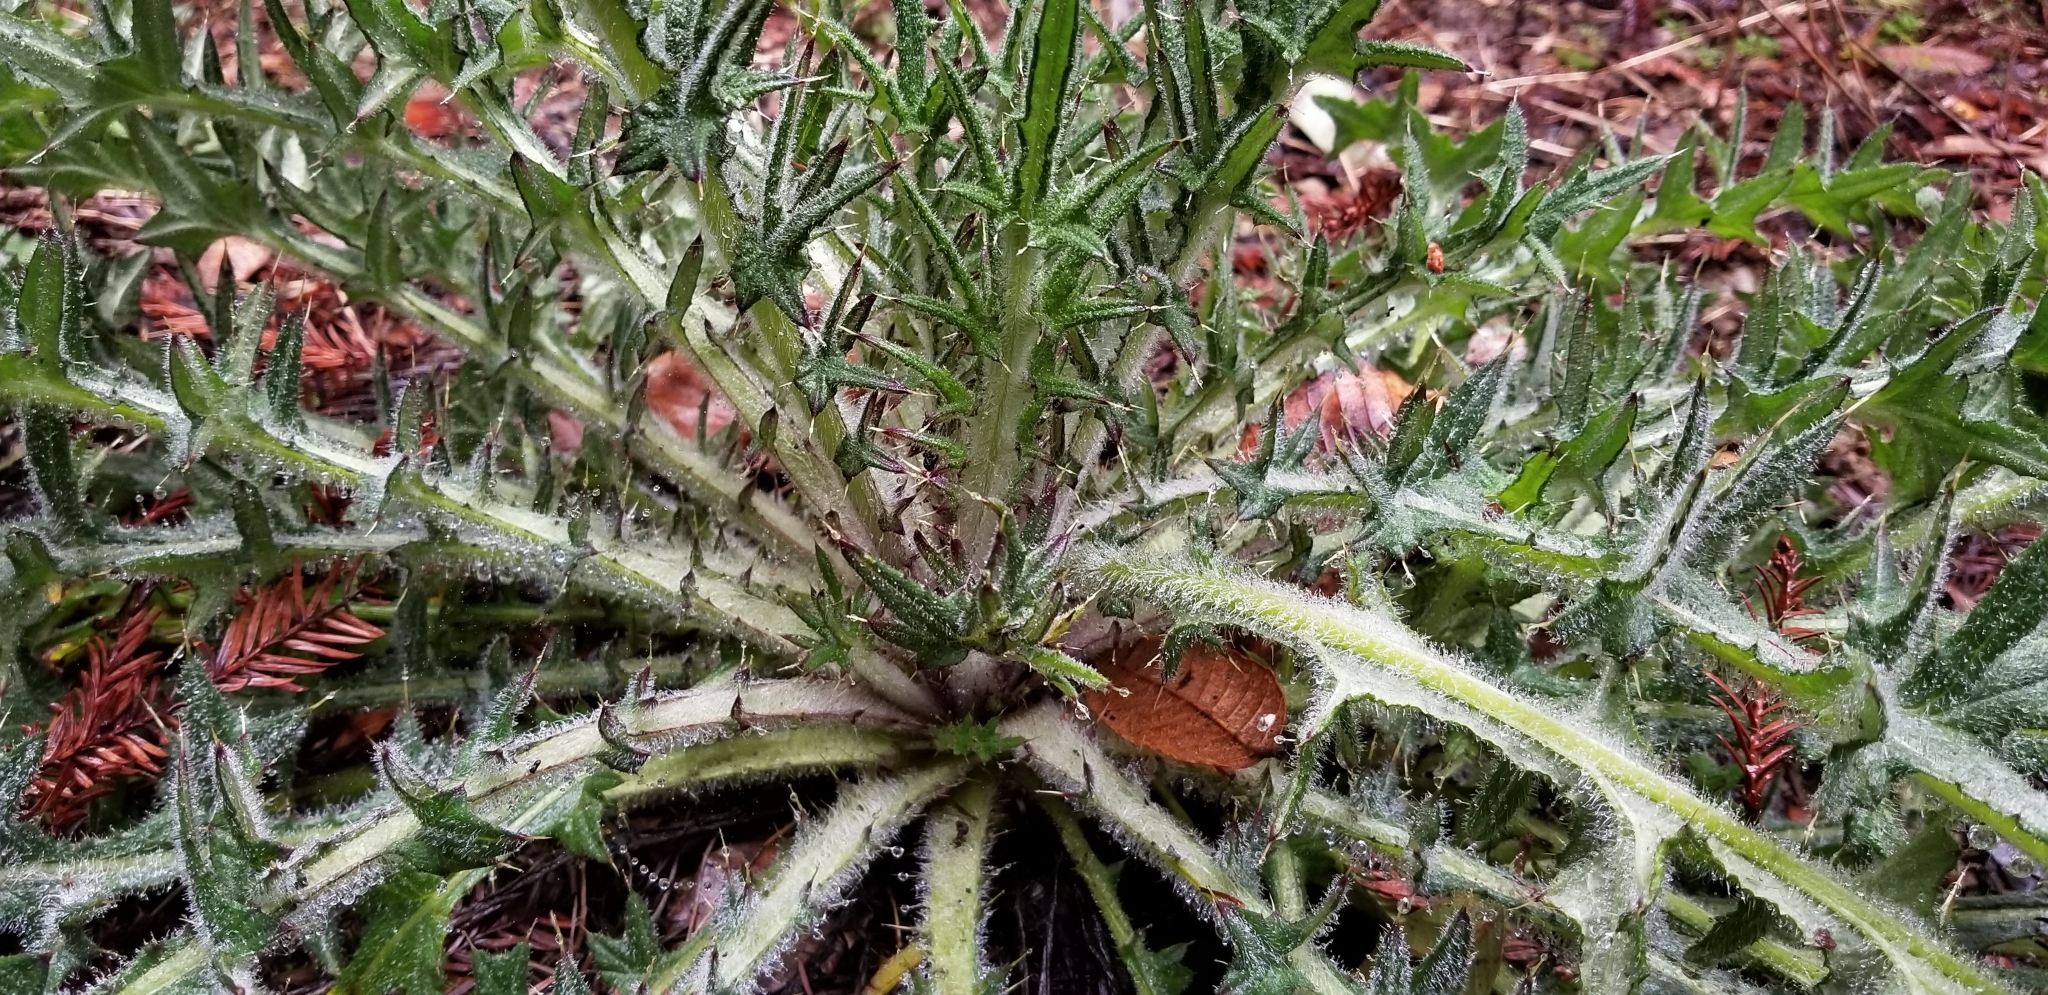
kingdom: Plantae
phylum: Tracheophyta
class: Magnoliopsida
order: Asterales
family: Asteraceae
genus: Cirsium
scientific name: Cirsium vulgare
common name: Bull thistle
